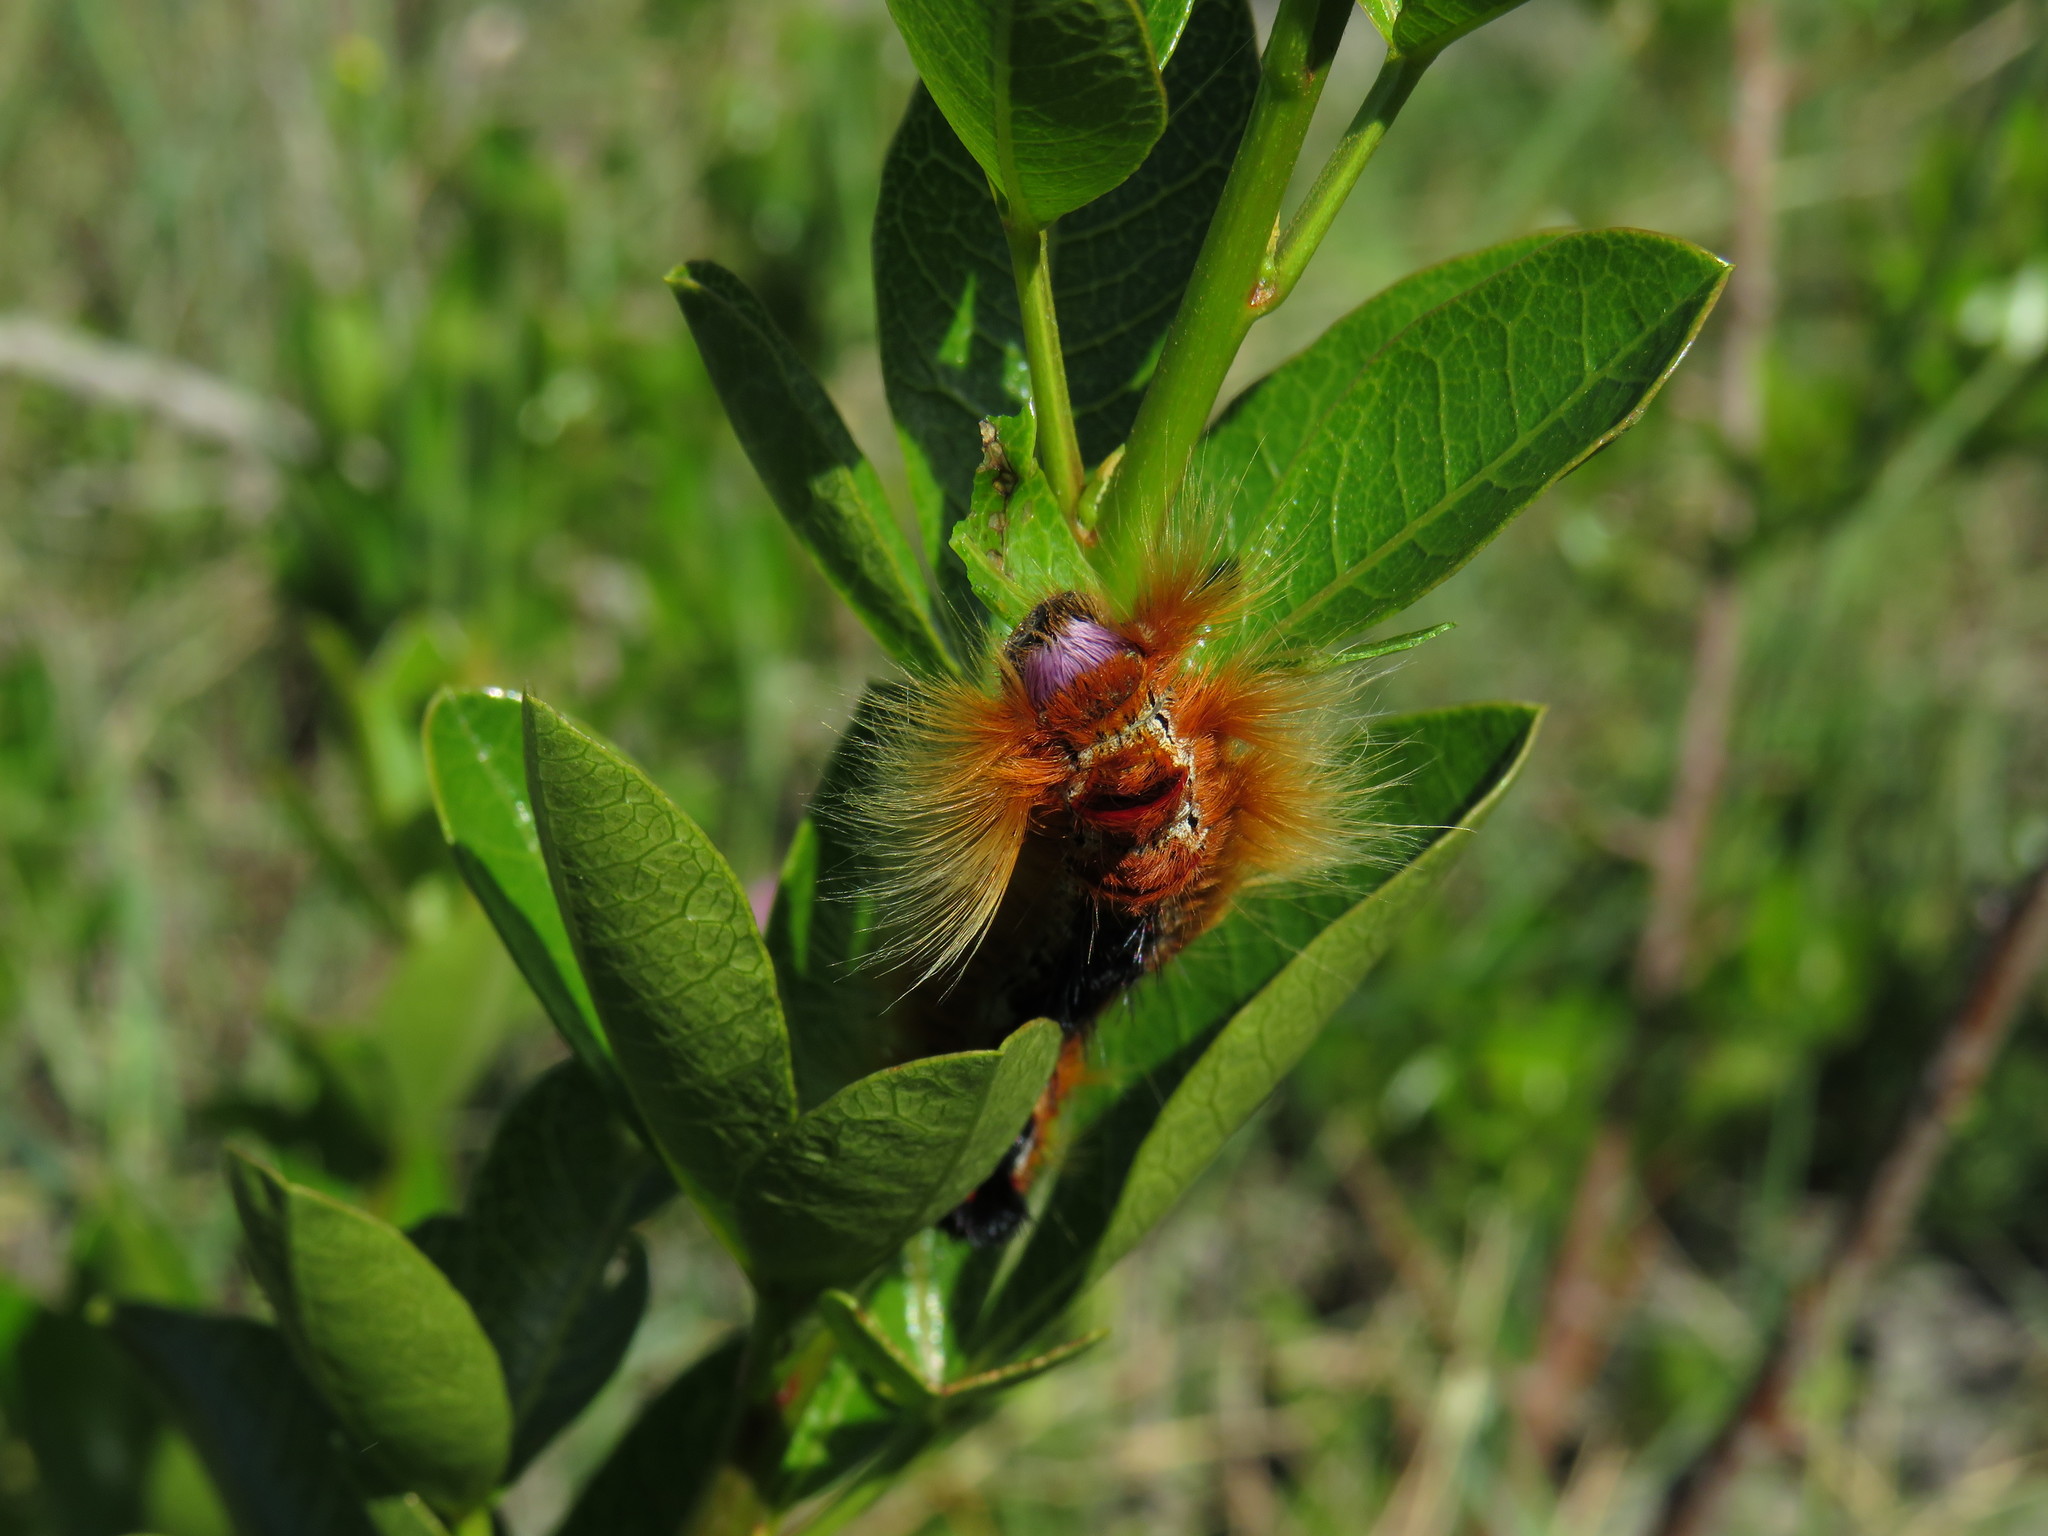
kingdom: Plantae
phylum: Tracheophyta
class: Magnoliopsida
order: Sapindales
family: Anacardiaceae
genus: Searsia
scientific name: Searsia laevigata
